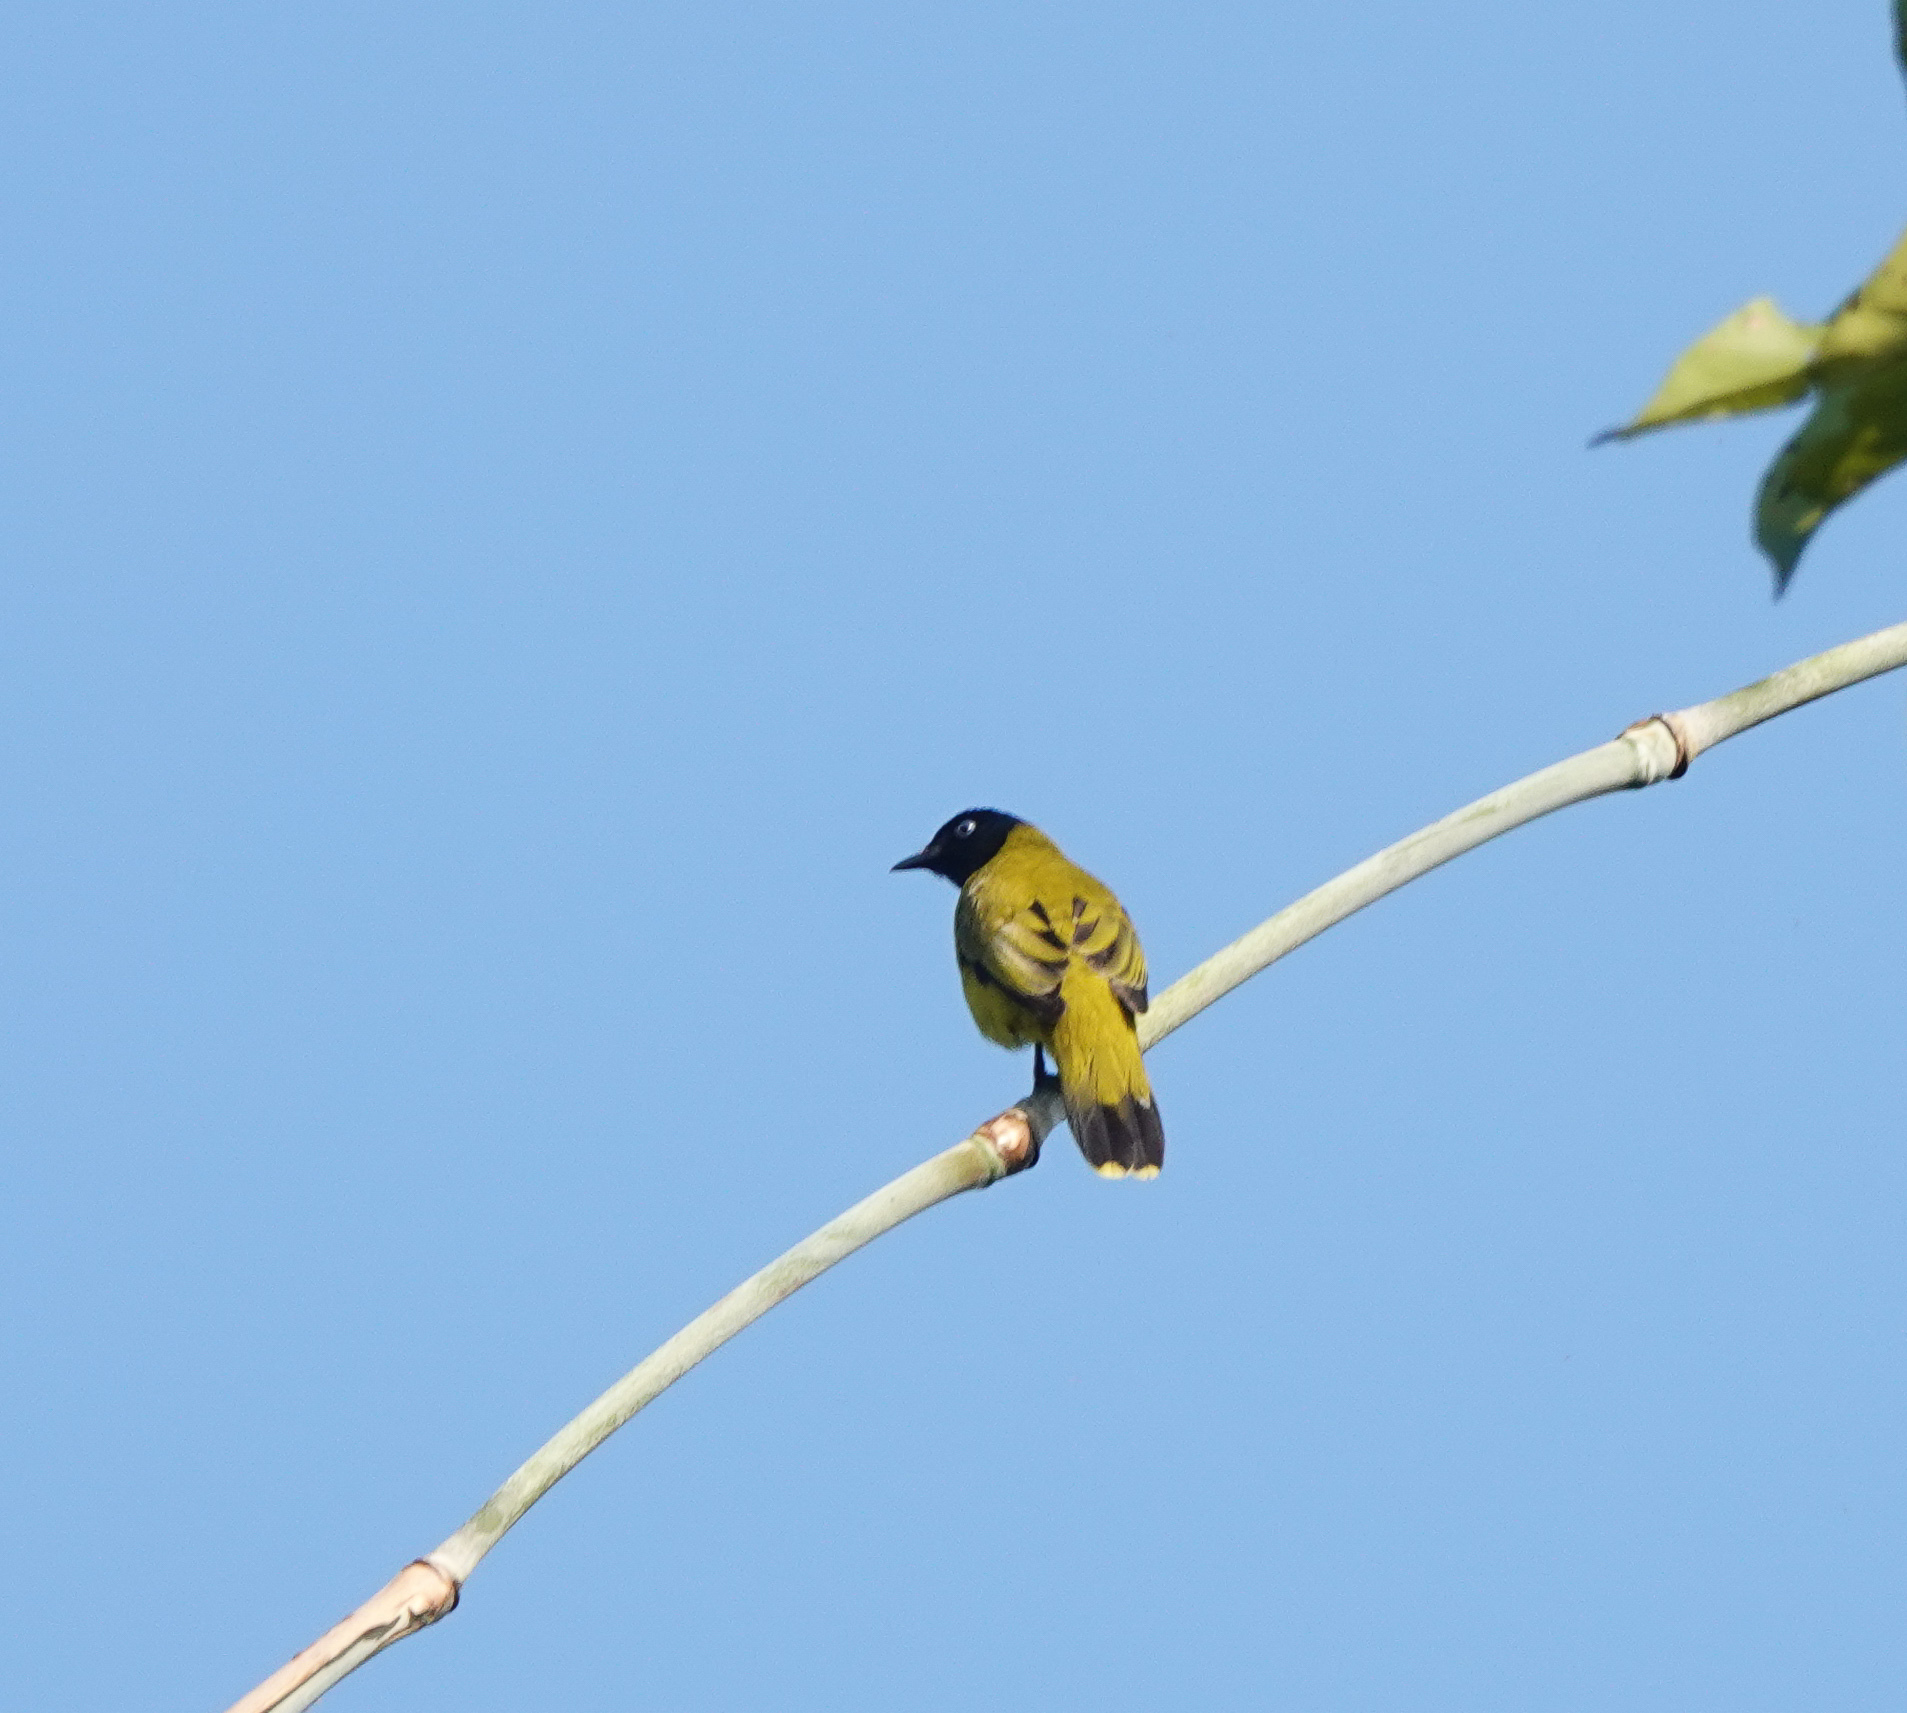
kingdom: Animalia
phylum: Chordata
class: Aves
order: Passeriformes
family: Pycnonotidae
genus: Microtarsus
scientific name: Microtarsus
